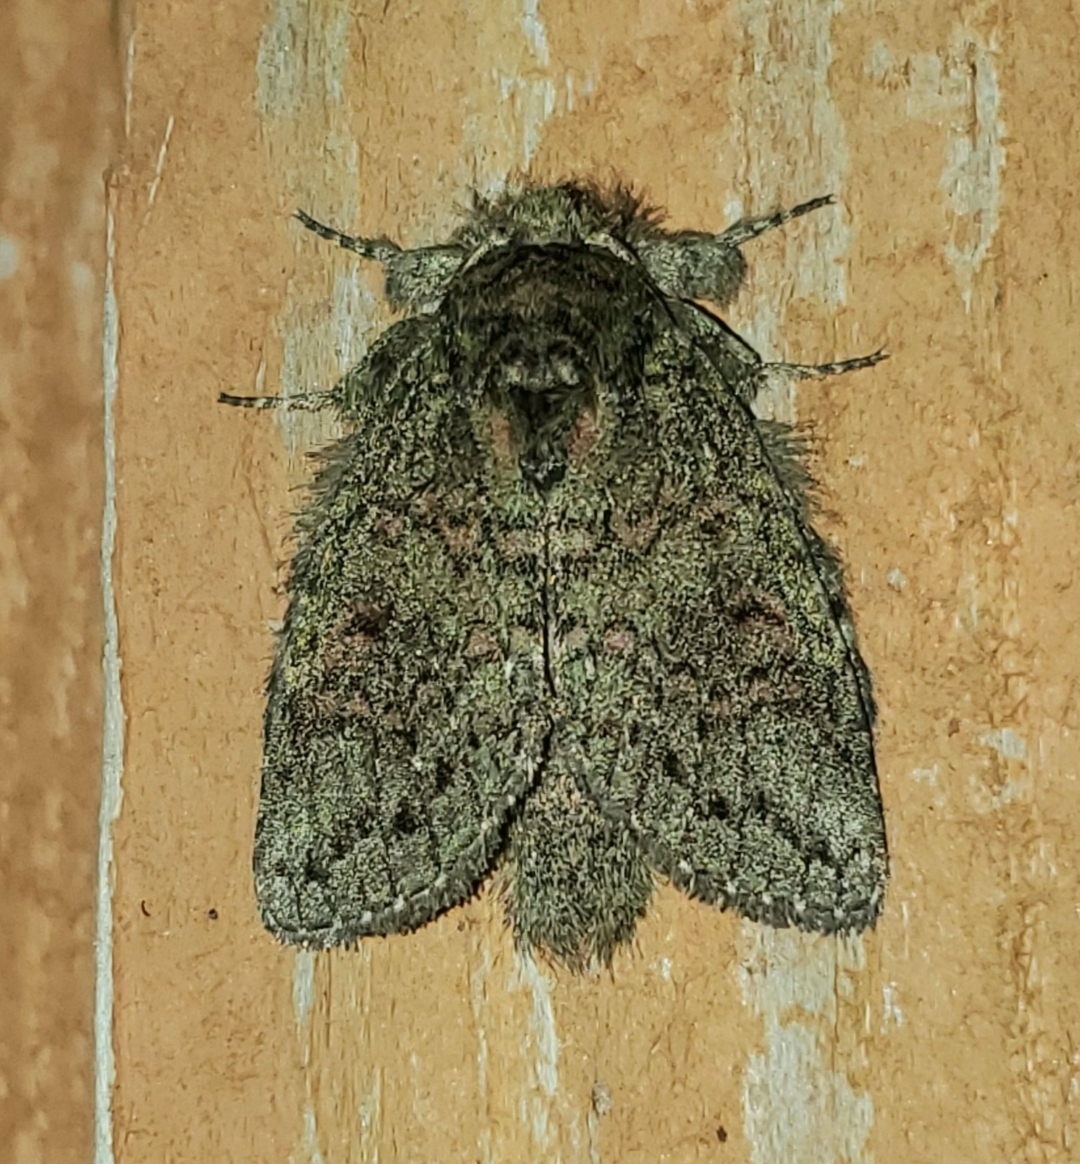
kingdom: Animalia
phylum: Arthropoda
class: Insecta
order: Lepidoptera
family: Notodontidae
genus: Disphragis
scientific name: Disphragis Cecrita biundata
